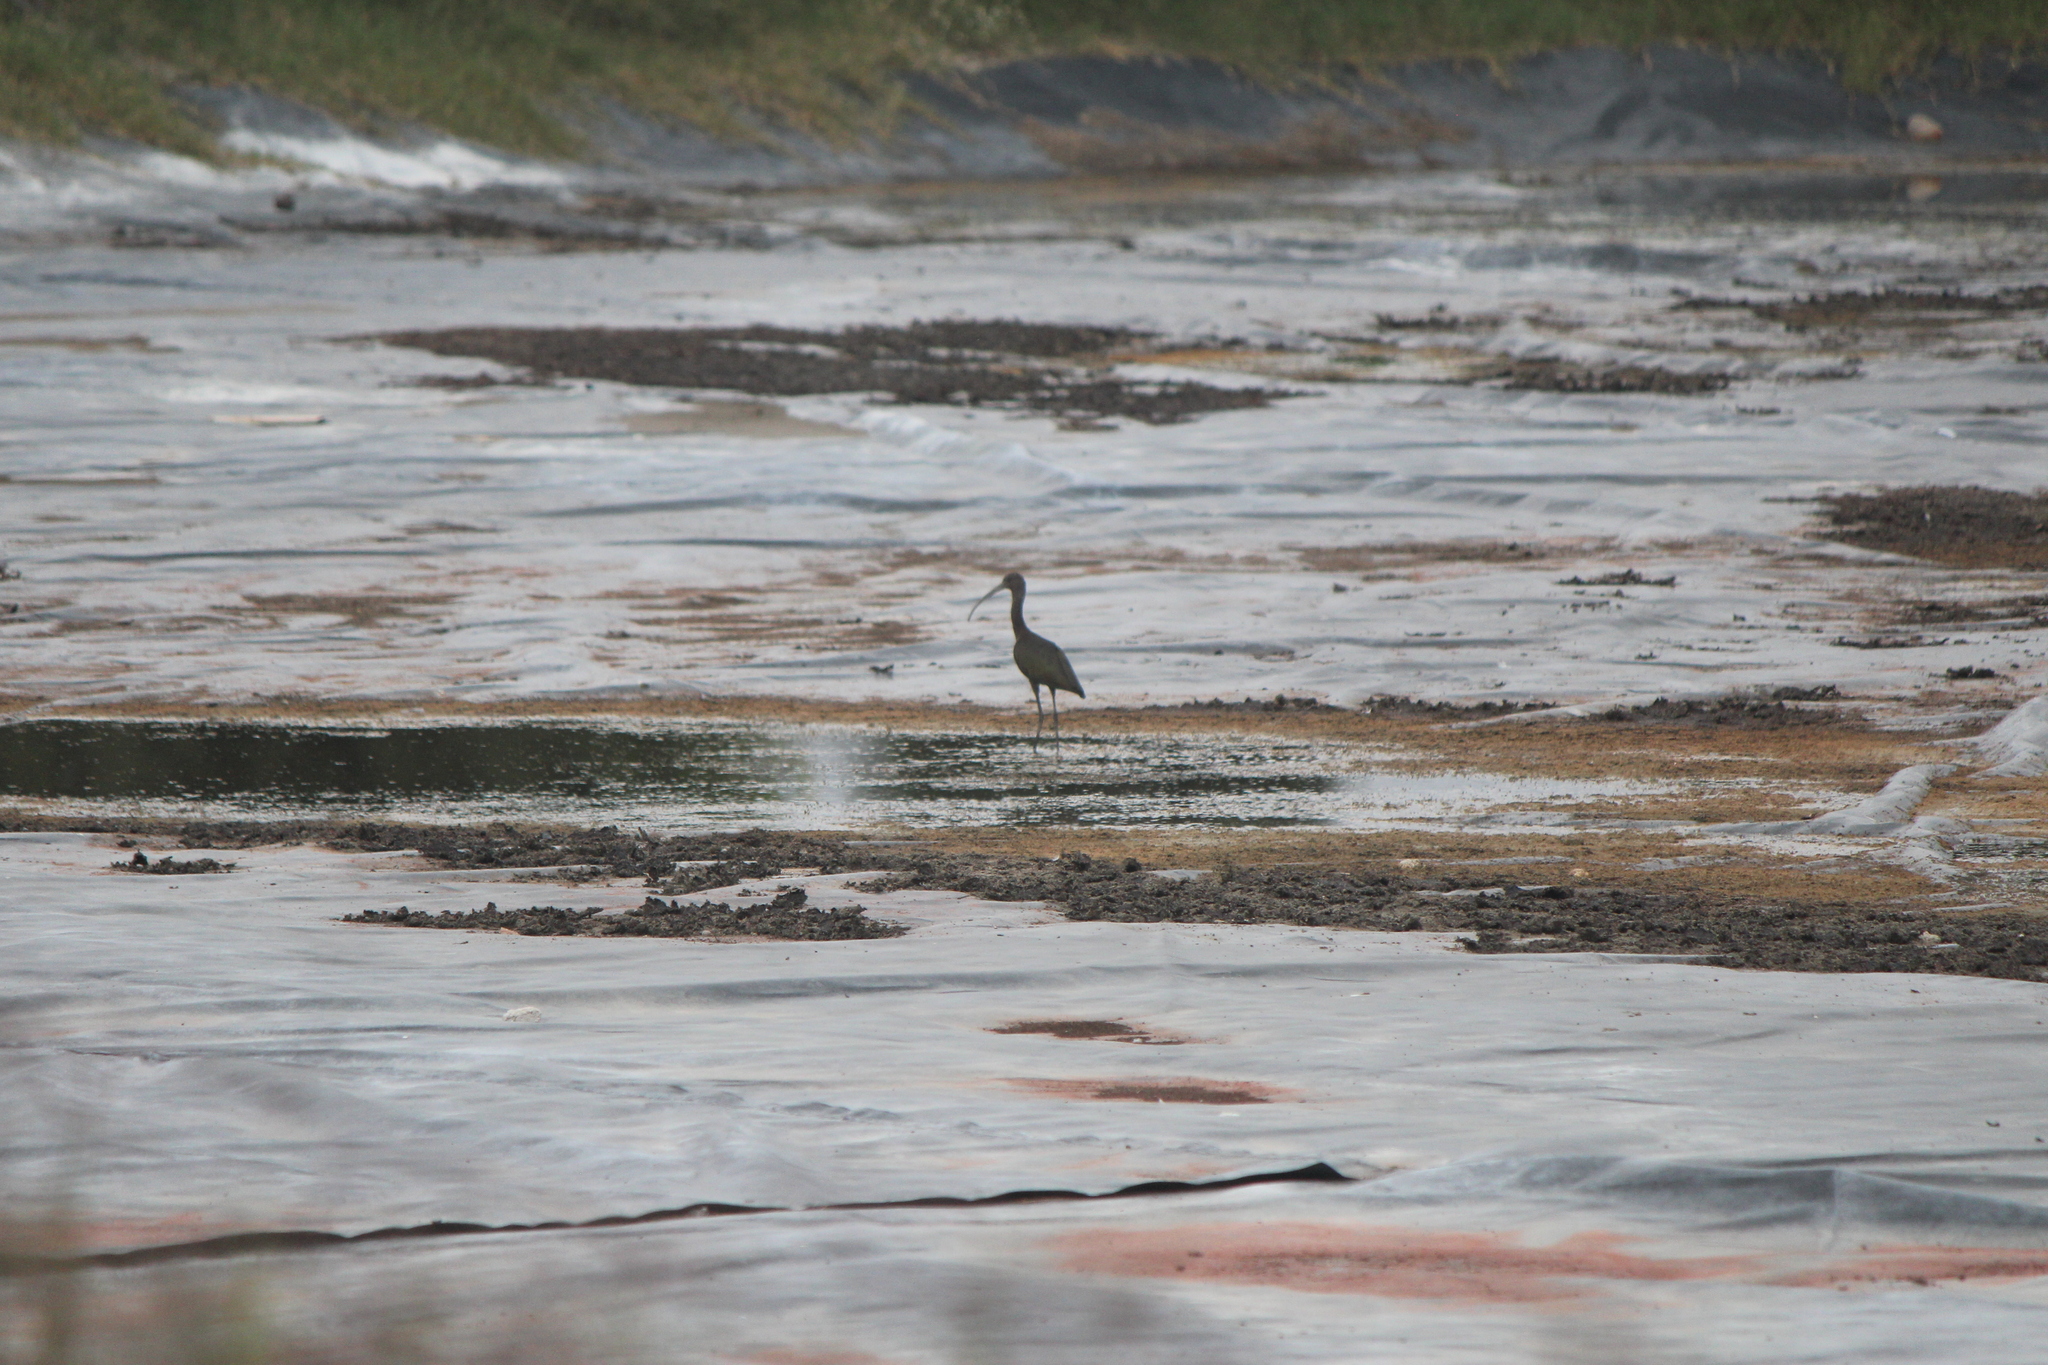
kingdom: Animalia
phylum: Chordata
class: Aves
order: Pelecaniformes
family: Threskiornithidae
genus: Plegadis
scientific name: Plegadis chihi
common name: White-faced ibis
